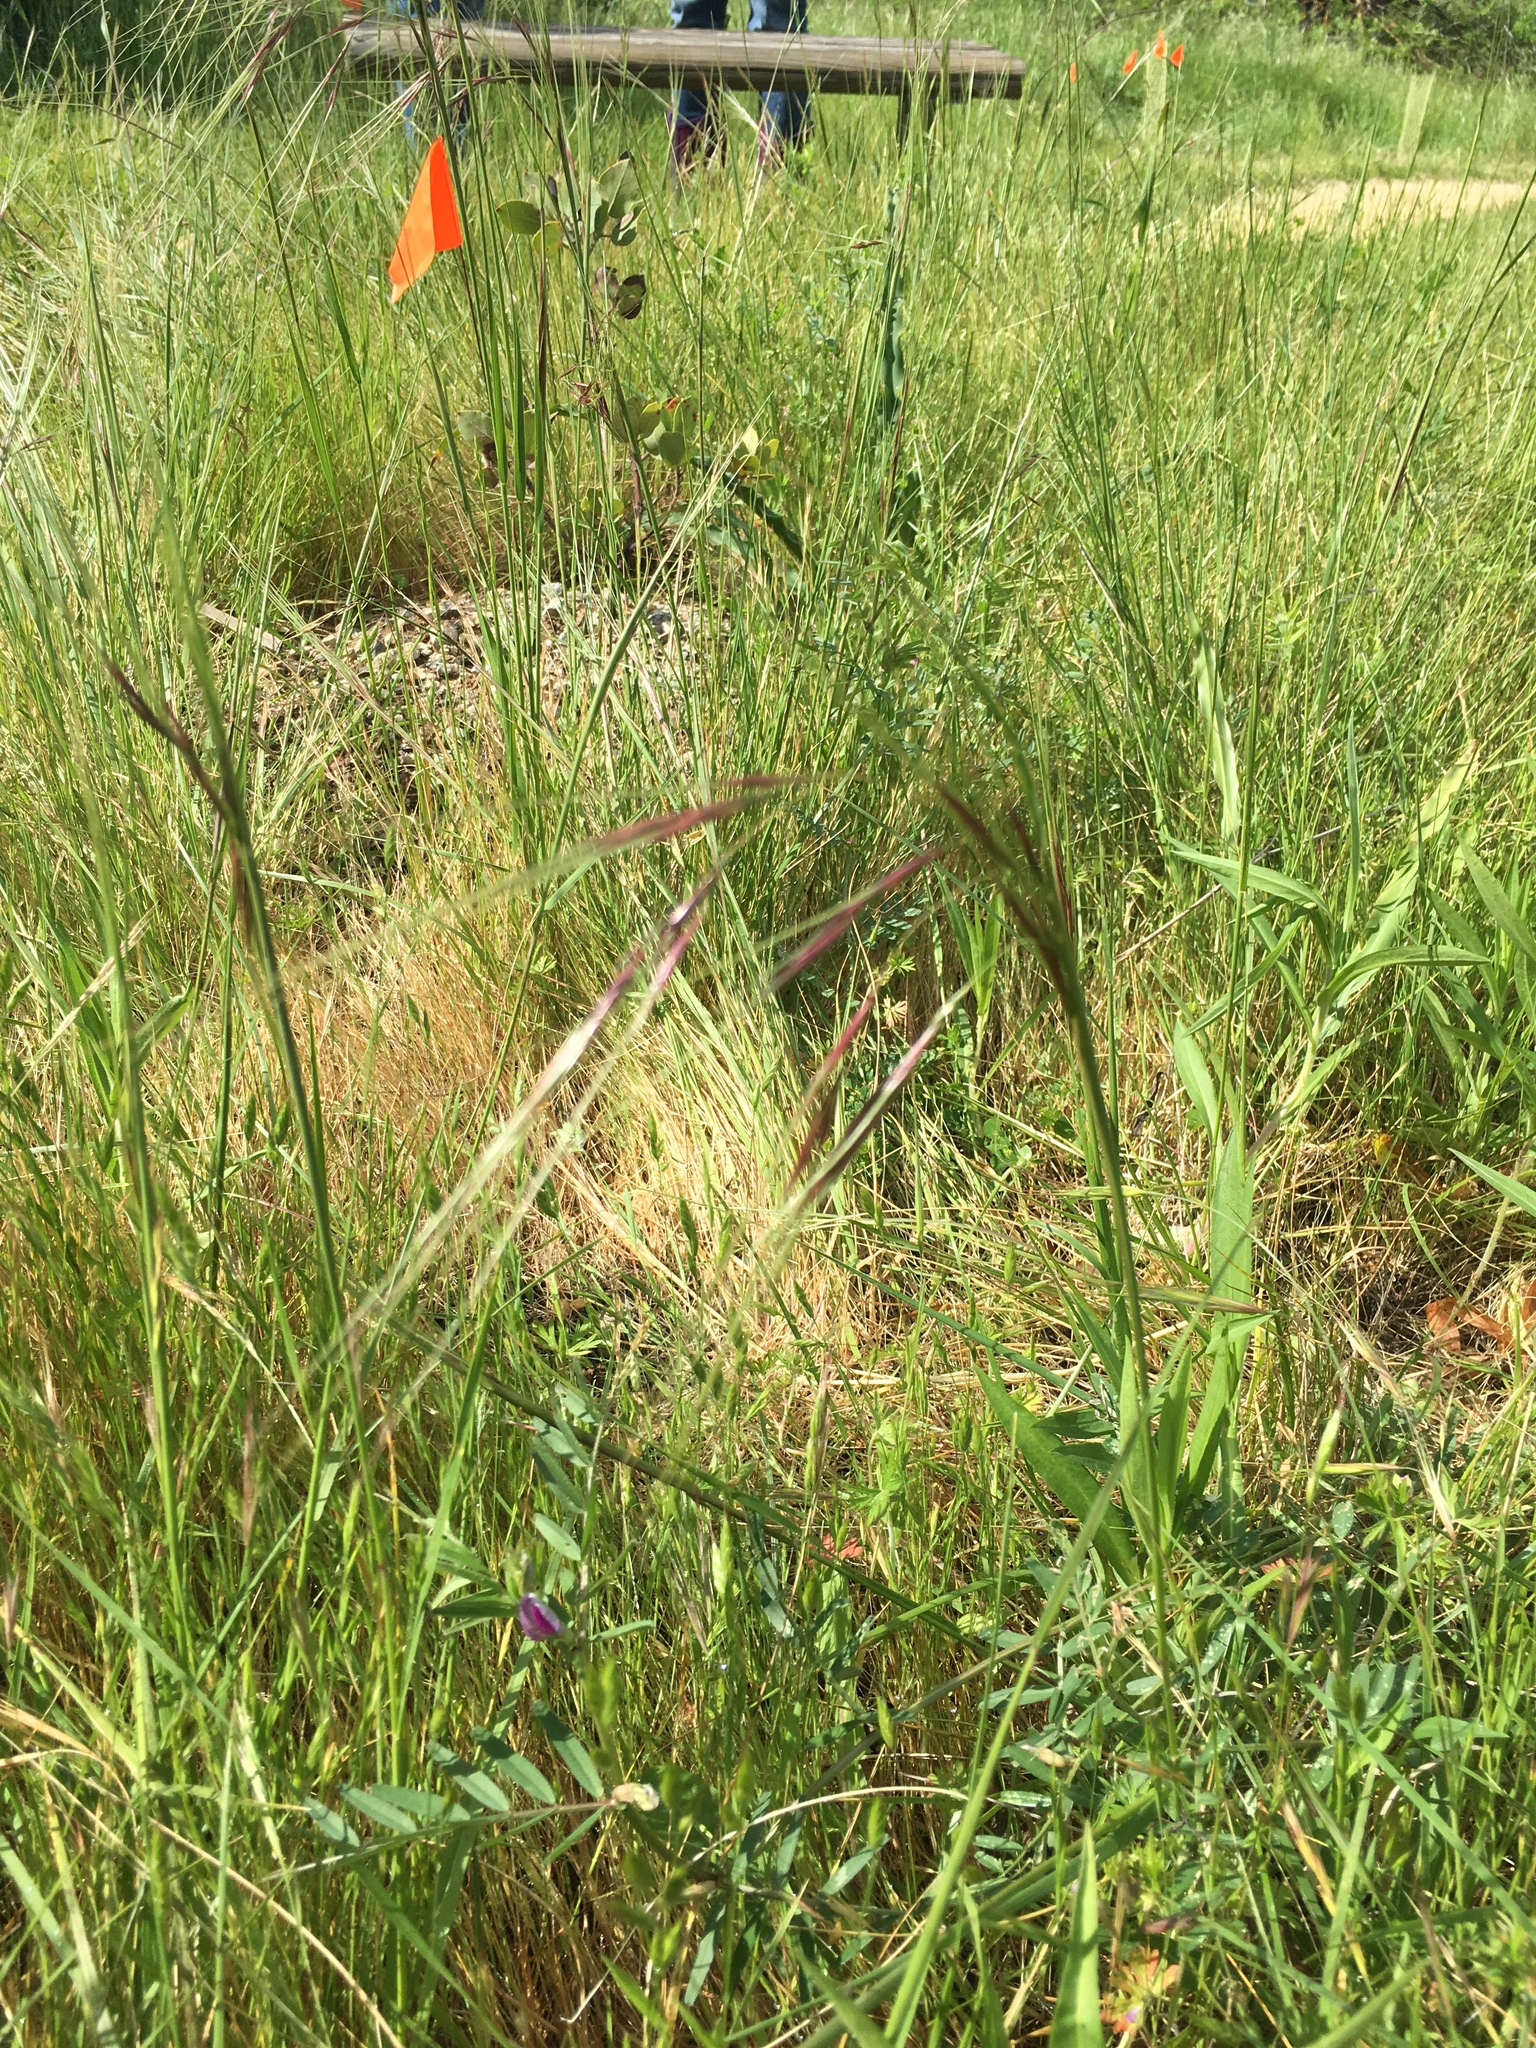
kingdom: Plantae
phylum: Tracheophyta
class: Liliopsida
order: Poales
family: Poaceae
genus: Nassella
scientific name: Nassella pulchra
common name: Purple needlegrass
